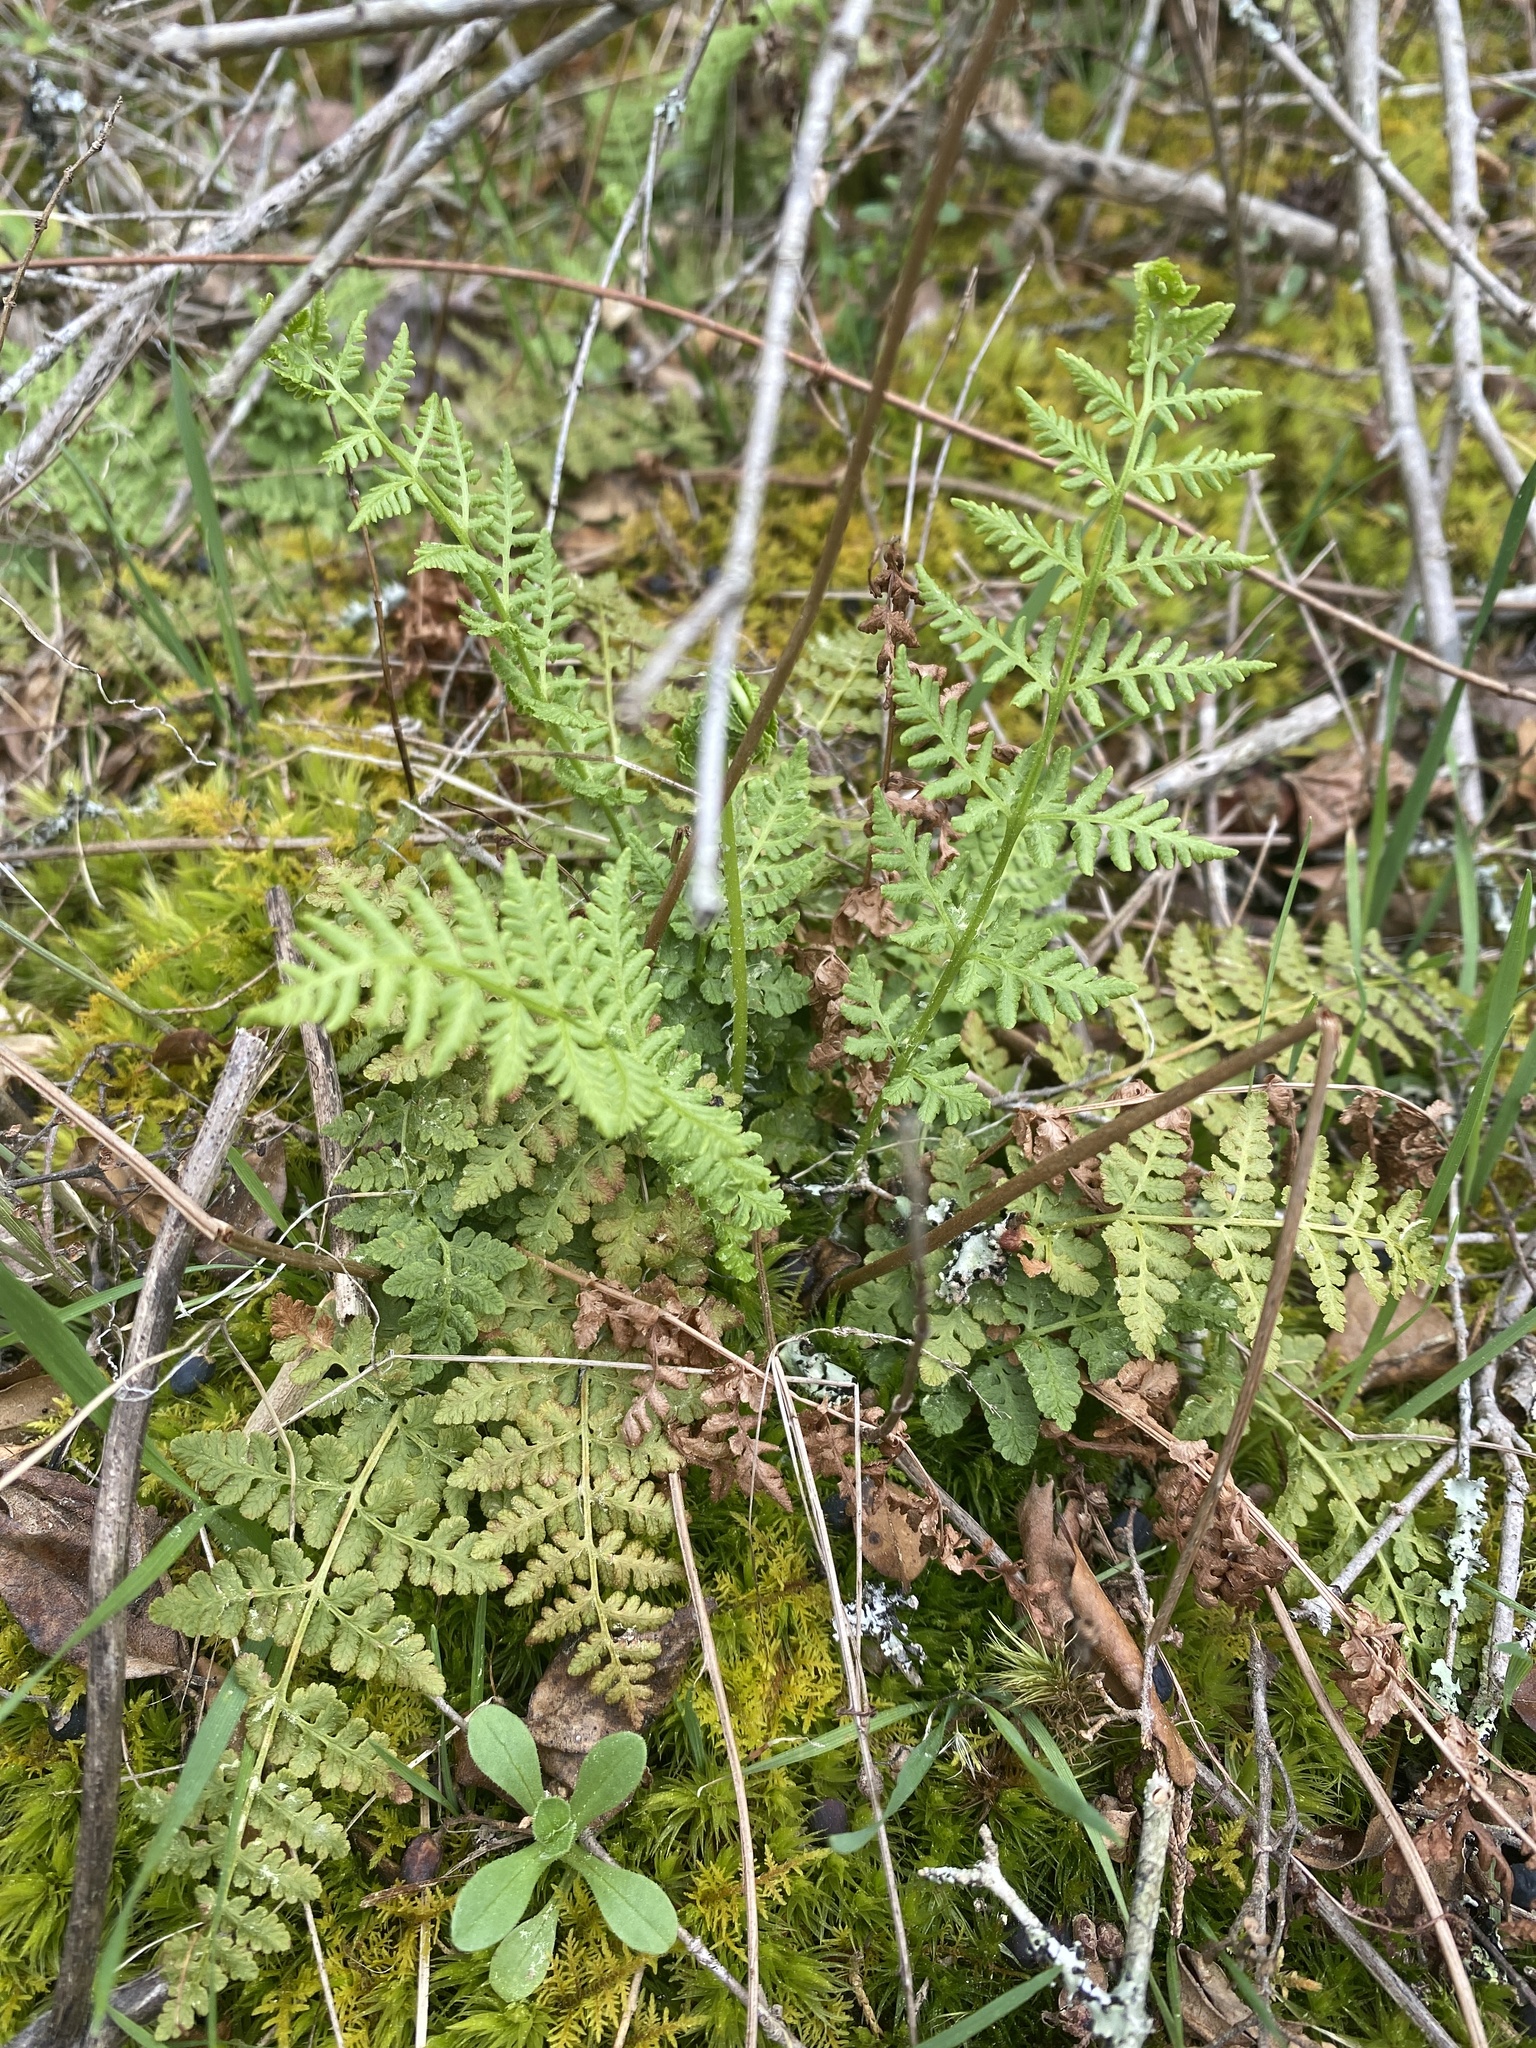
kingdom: Plantae
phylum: Tracheophyta
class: Polypodiopsida
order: Polypodiales
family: Woodsiaceae
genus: Physematium
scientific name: Physematium obtusum
